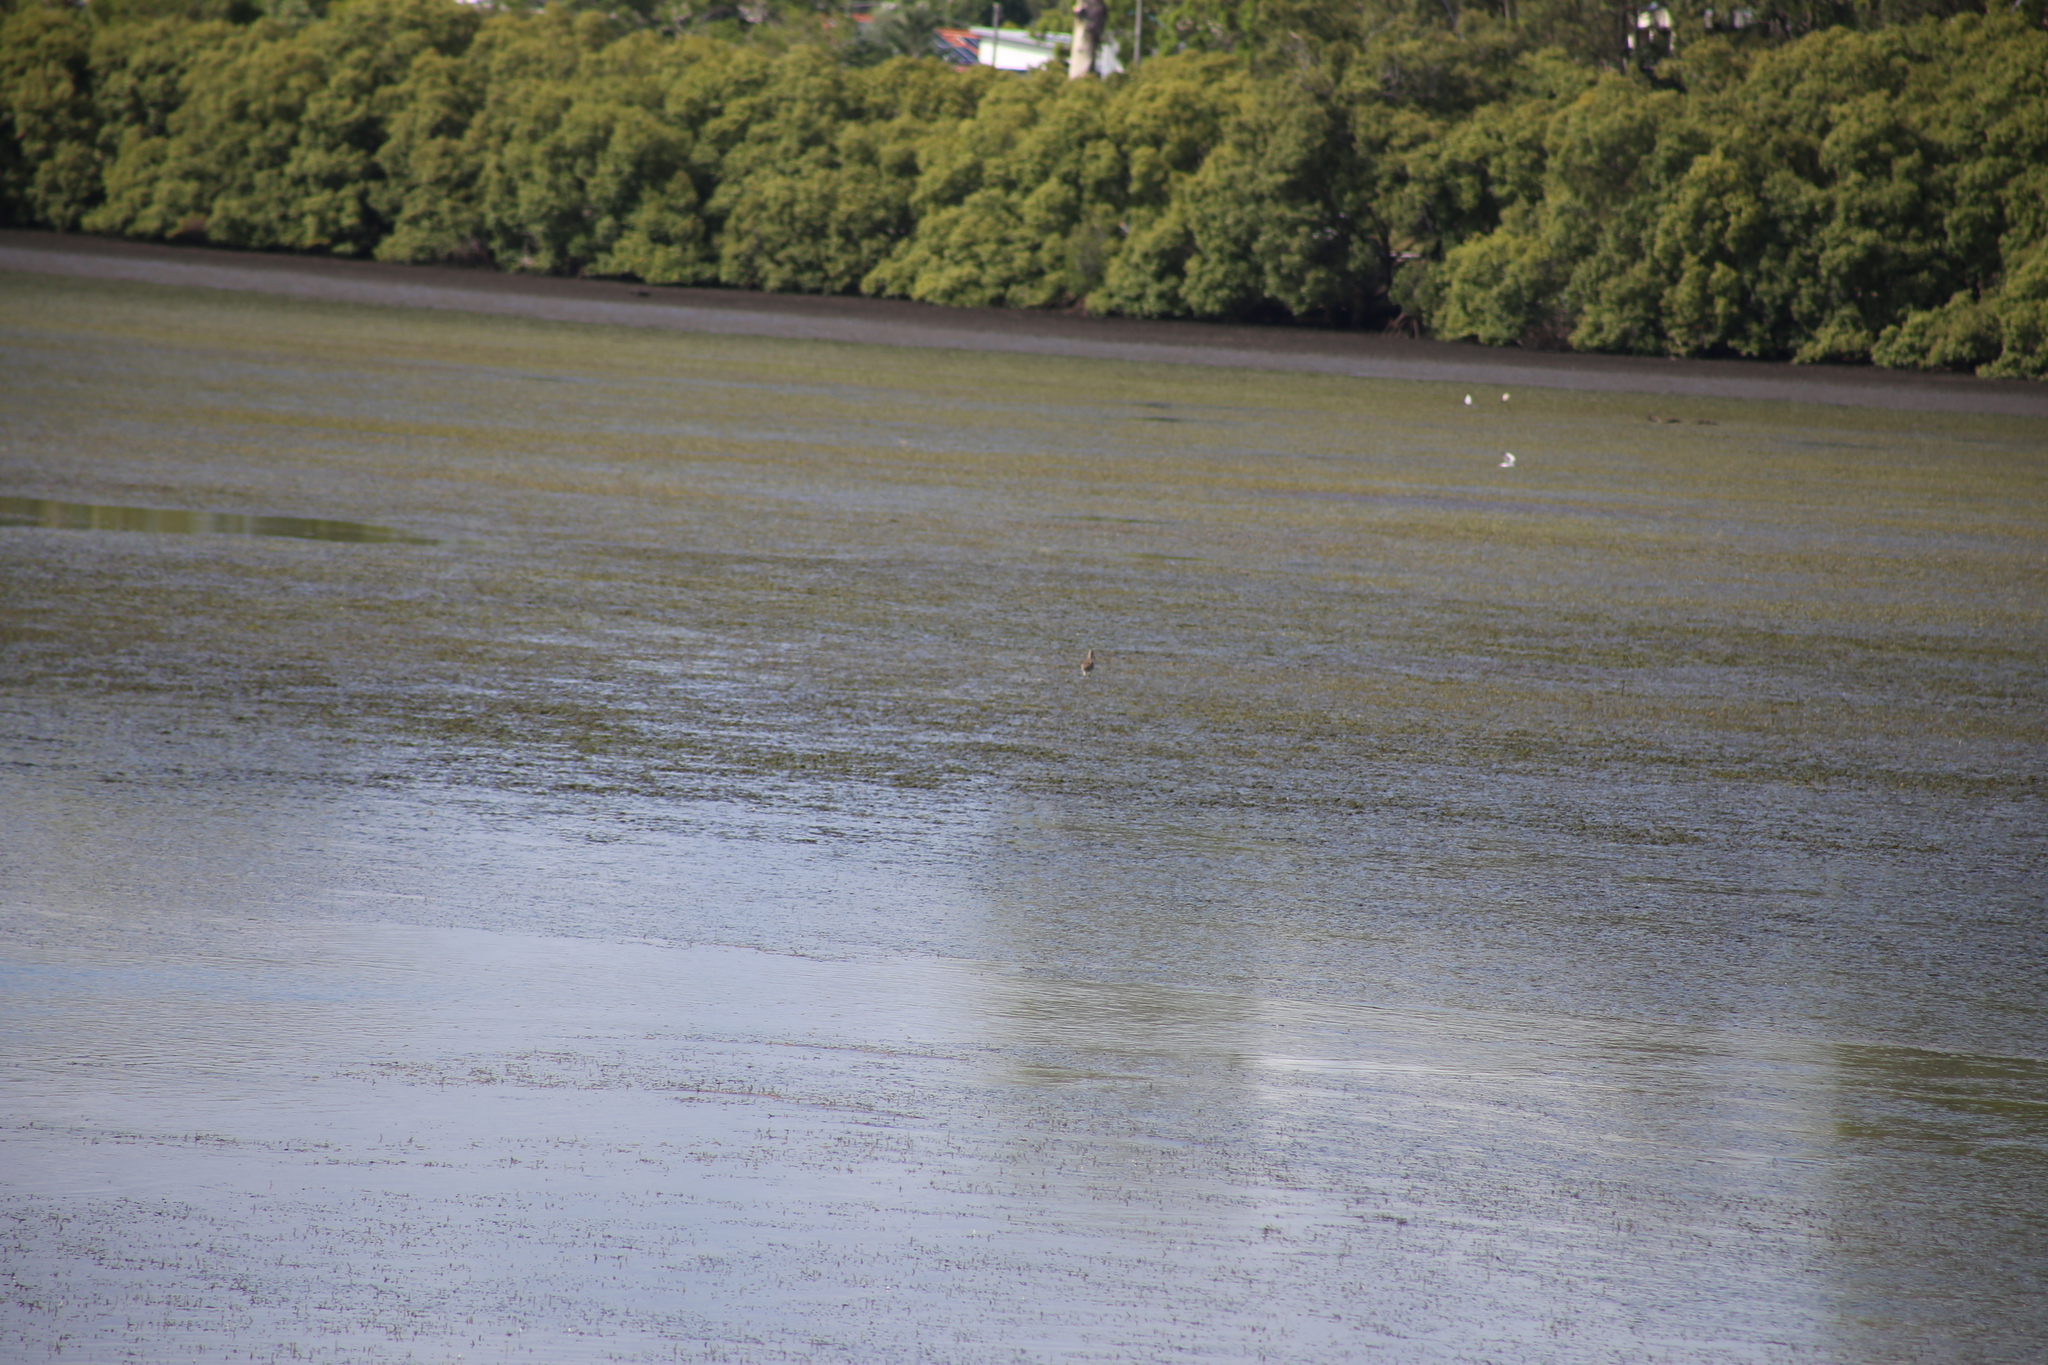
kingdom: Animalia
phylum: Chordata
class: Aves
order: Charadriiformes
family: Scolopacidae
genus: Numenius
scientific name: Numenius madagascariensis
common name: Far eastern curlew
